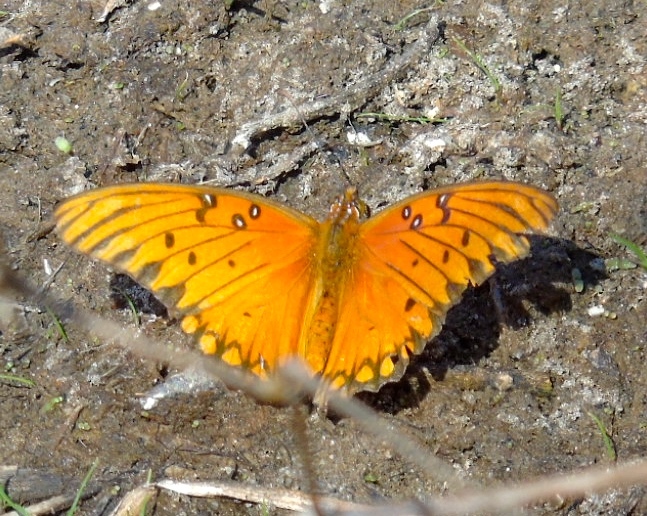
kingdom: Animalia
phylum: Arthropoda
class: Insecta
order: Lepidoptera
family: Nymphalidae
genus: Dione
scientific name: Dione vanillae
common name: Gulf fritillary
